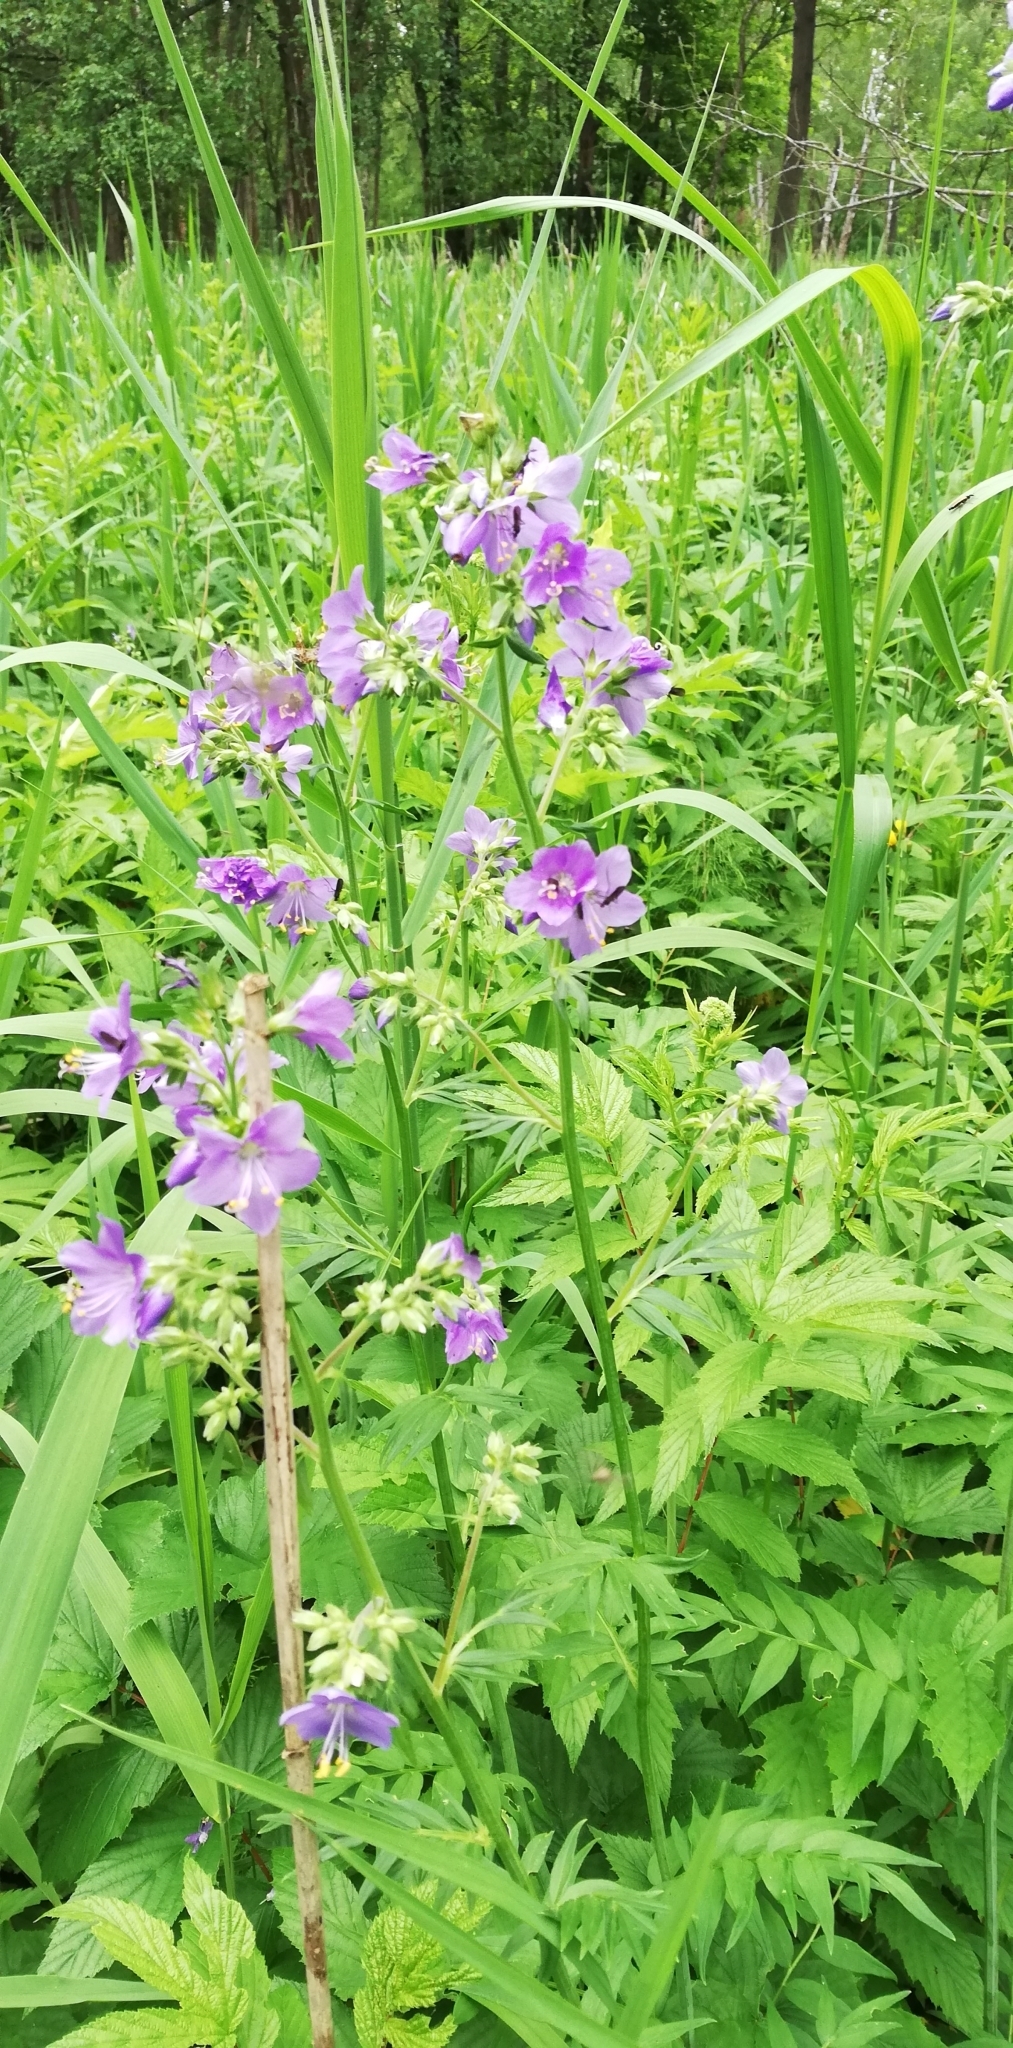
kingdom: Plantae
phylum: Tracheophyta
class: Magnoliopsida
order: Ericales
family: Polemoniaceae
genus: Polemonium
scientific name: Polemonium caeruleum
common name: Jacob's-ladder
